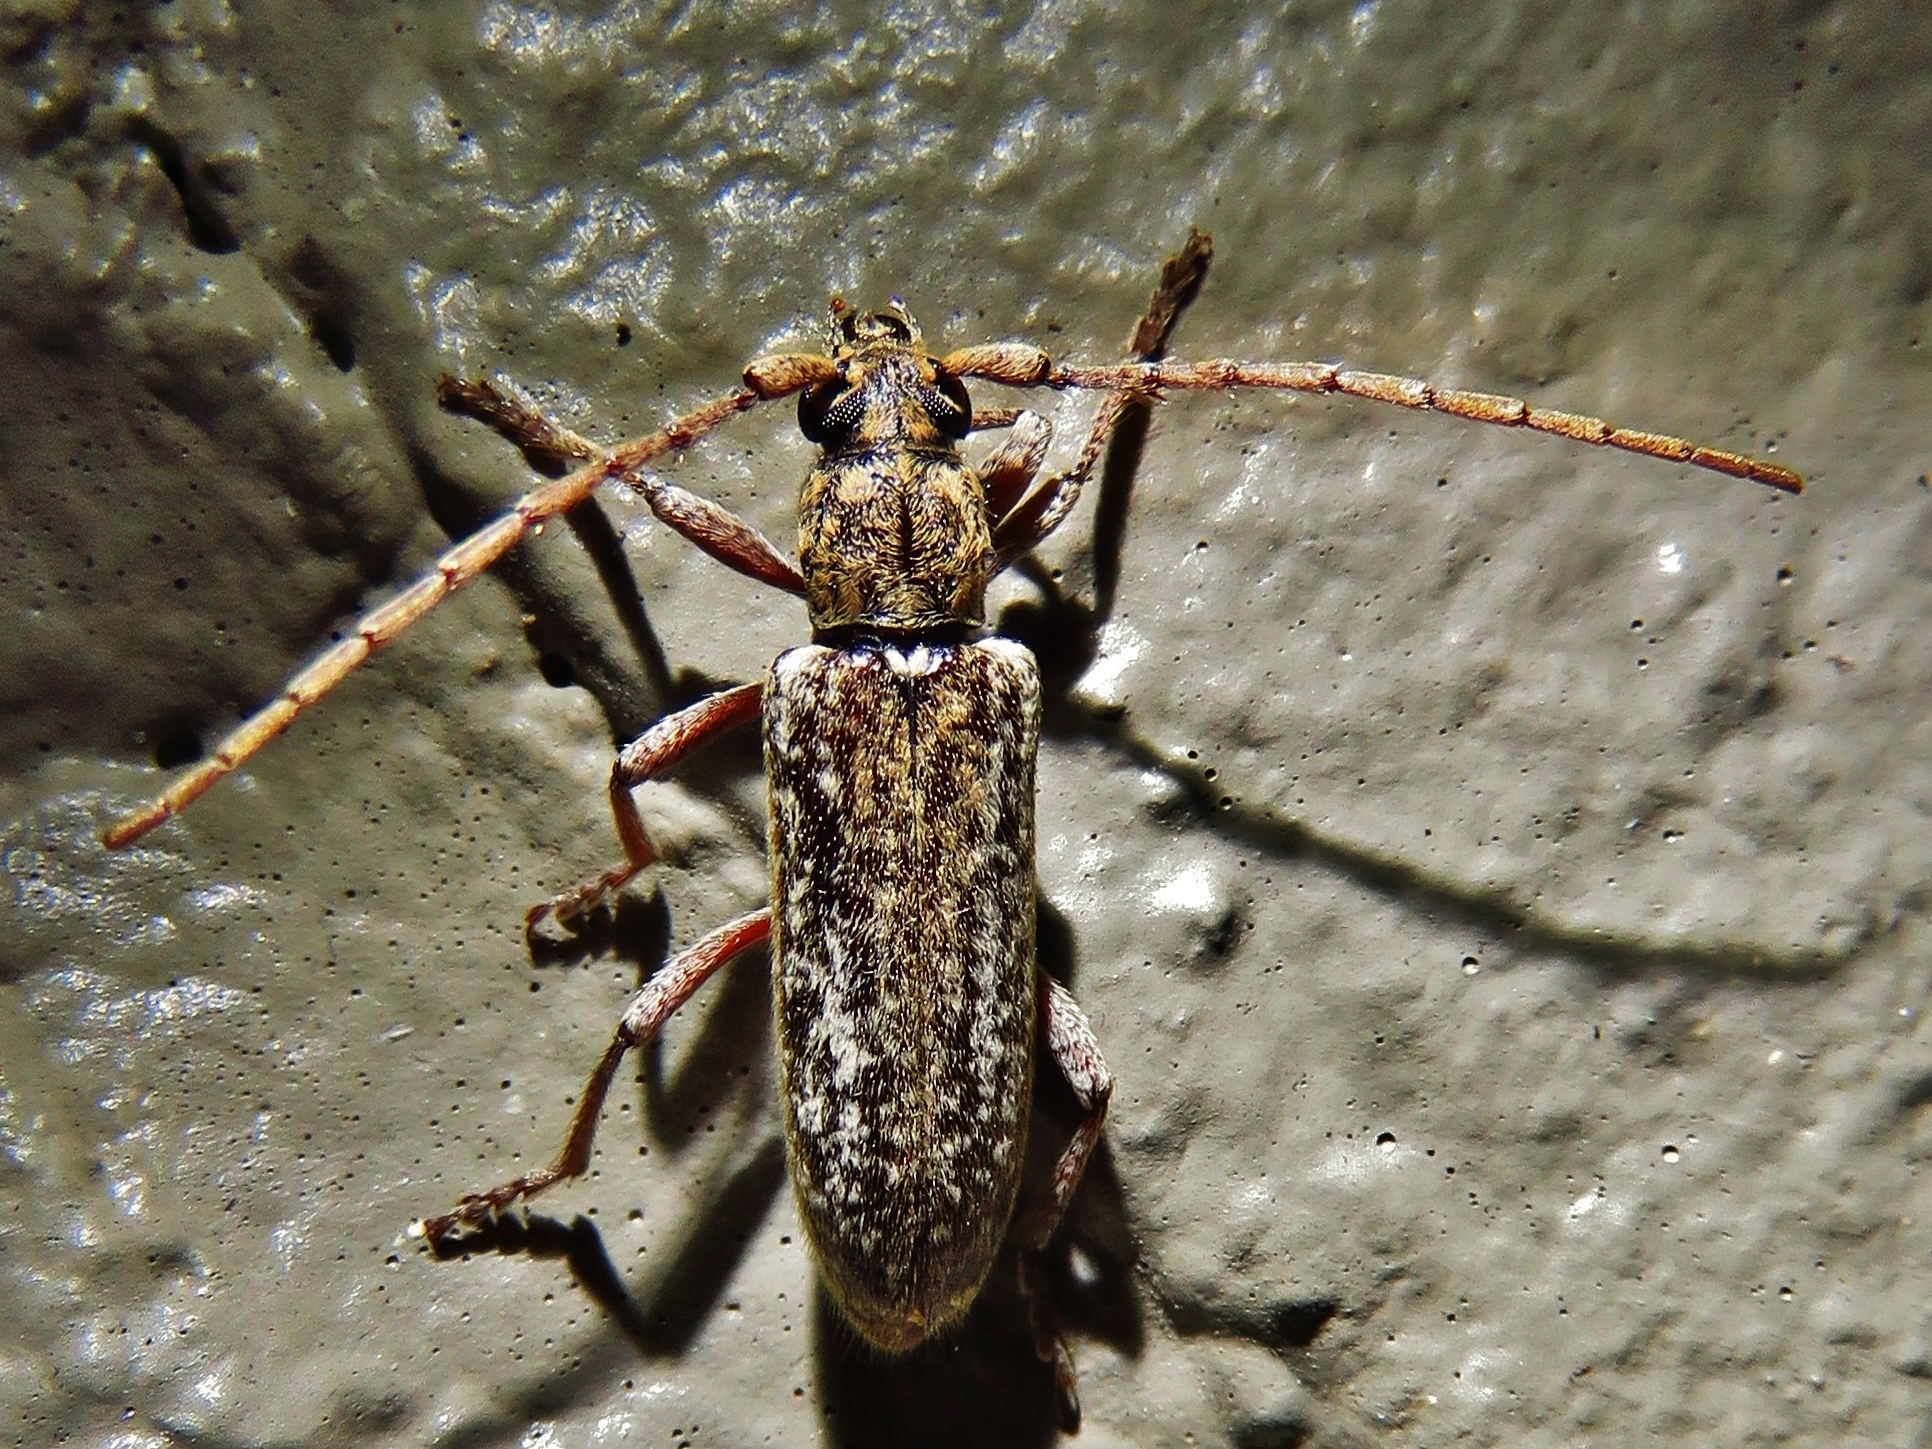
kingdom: Animalia
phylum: Arthropoda
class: Insecta
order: Coleoptera
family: Cerambycidae
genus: Anelaphus
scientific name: Anelaphus debilis
